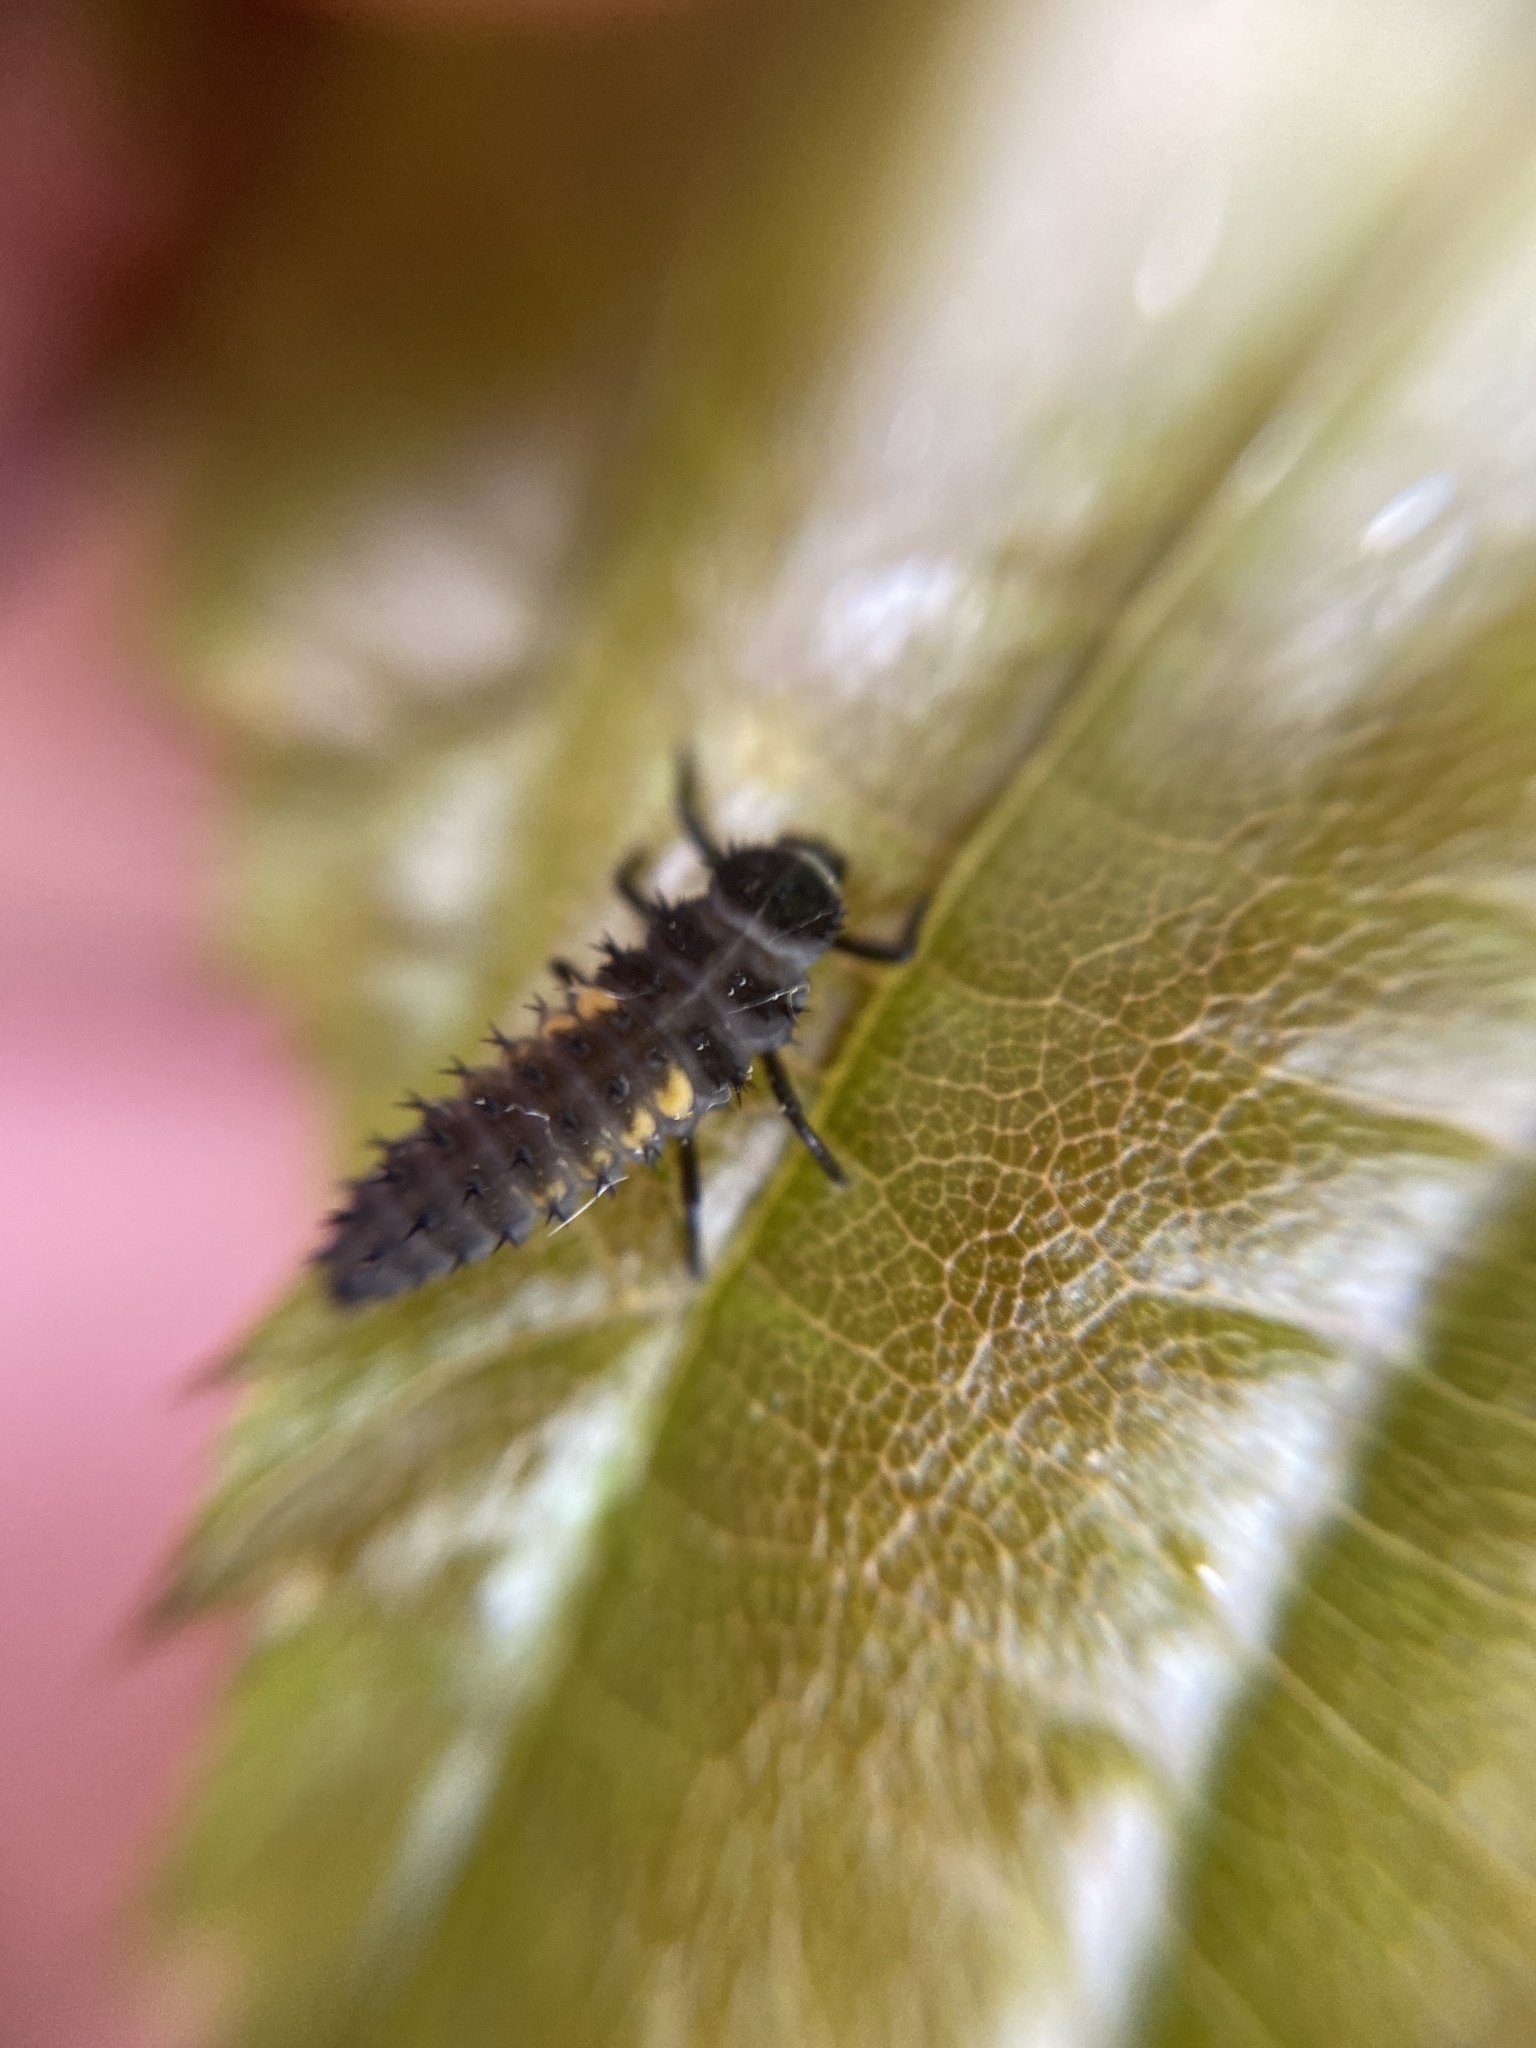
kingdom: Animalia
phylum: Arthropoda
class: Insecta
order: Coleoptera
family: Coccinellidae
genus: Harmonia
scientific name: Harmonia axyridis
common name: Harlequin ladybird
